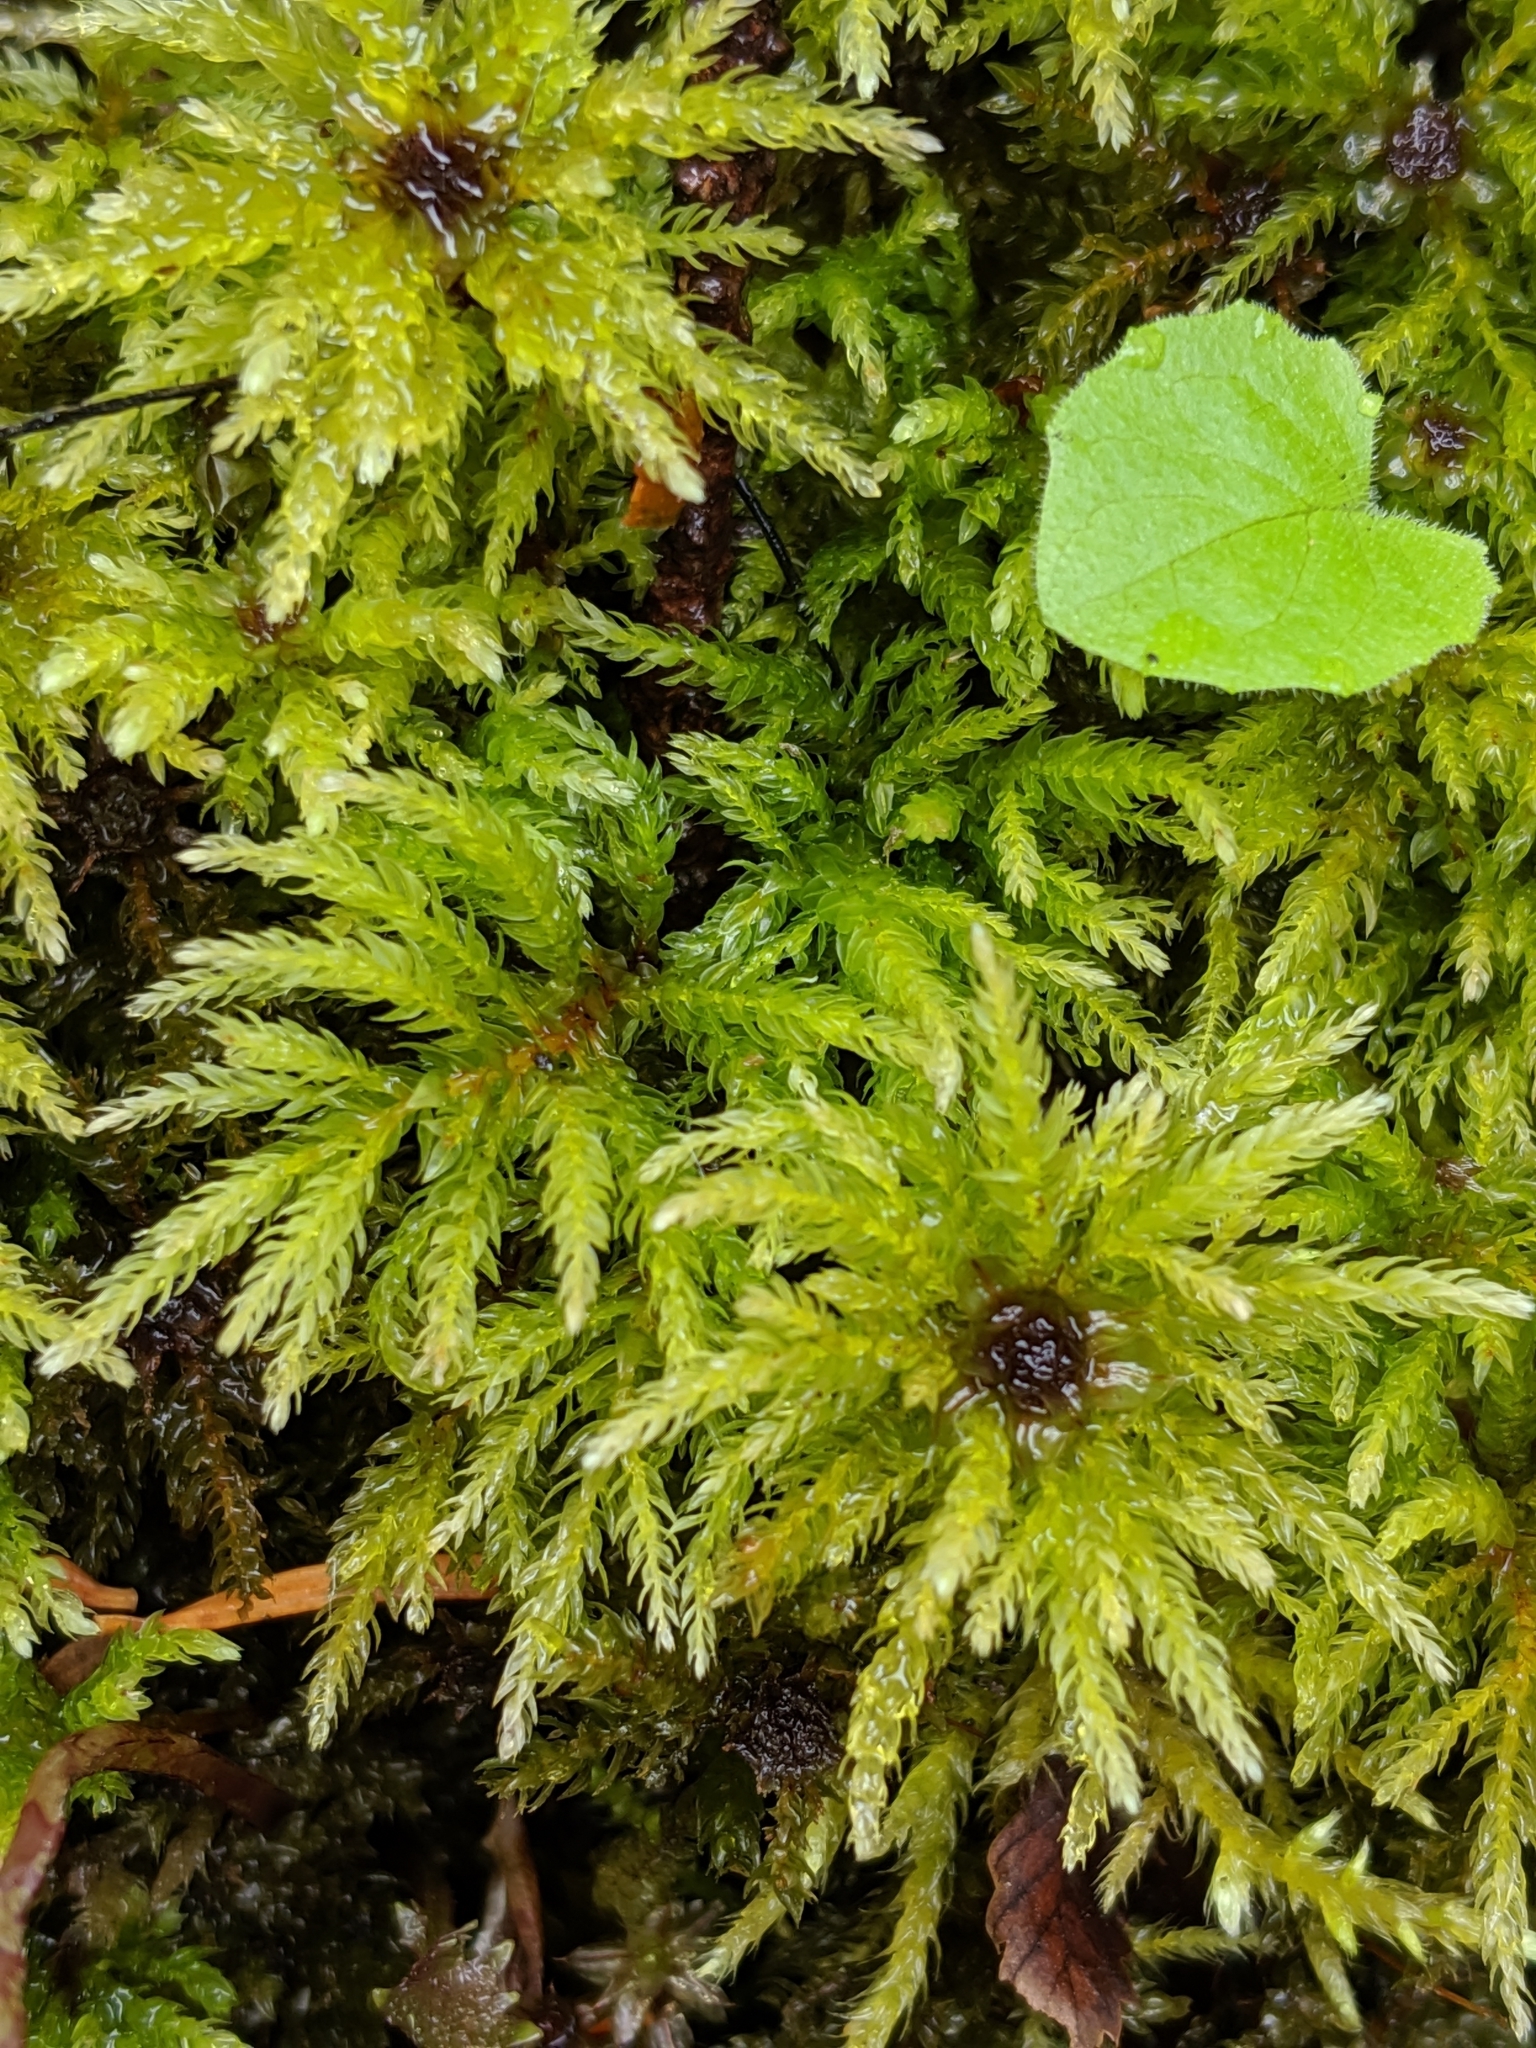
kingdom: Plantae
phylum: Bryophyta
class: Bryopsida
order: Bryales
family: Mniaceae
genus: Leucolepis
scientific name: Leucolepis acanthoneura
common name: Leucolepis umbrella moss
